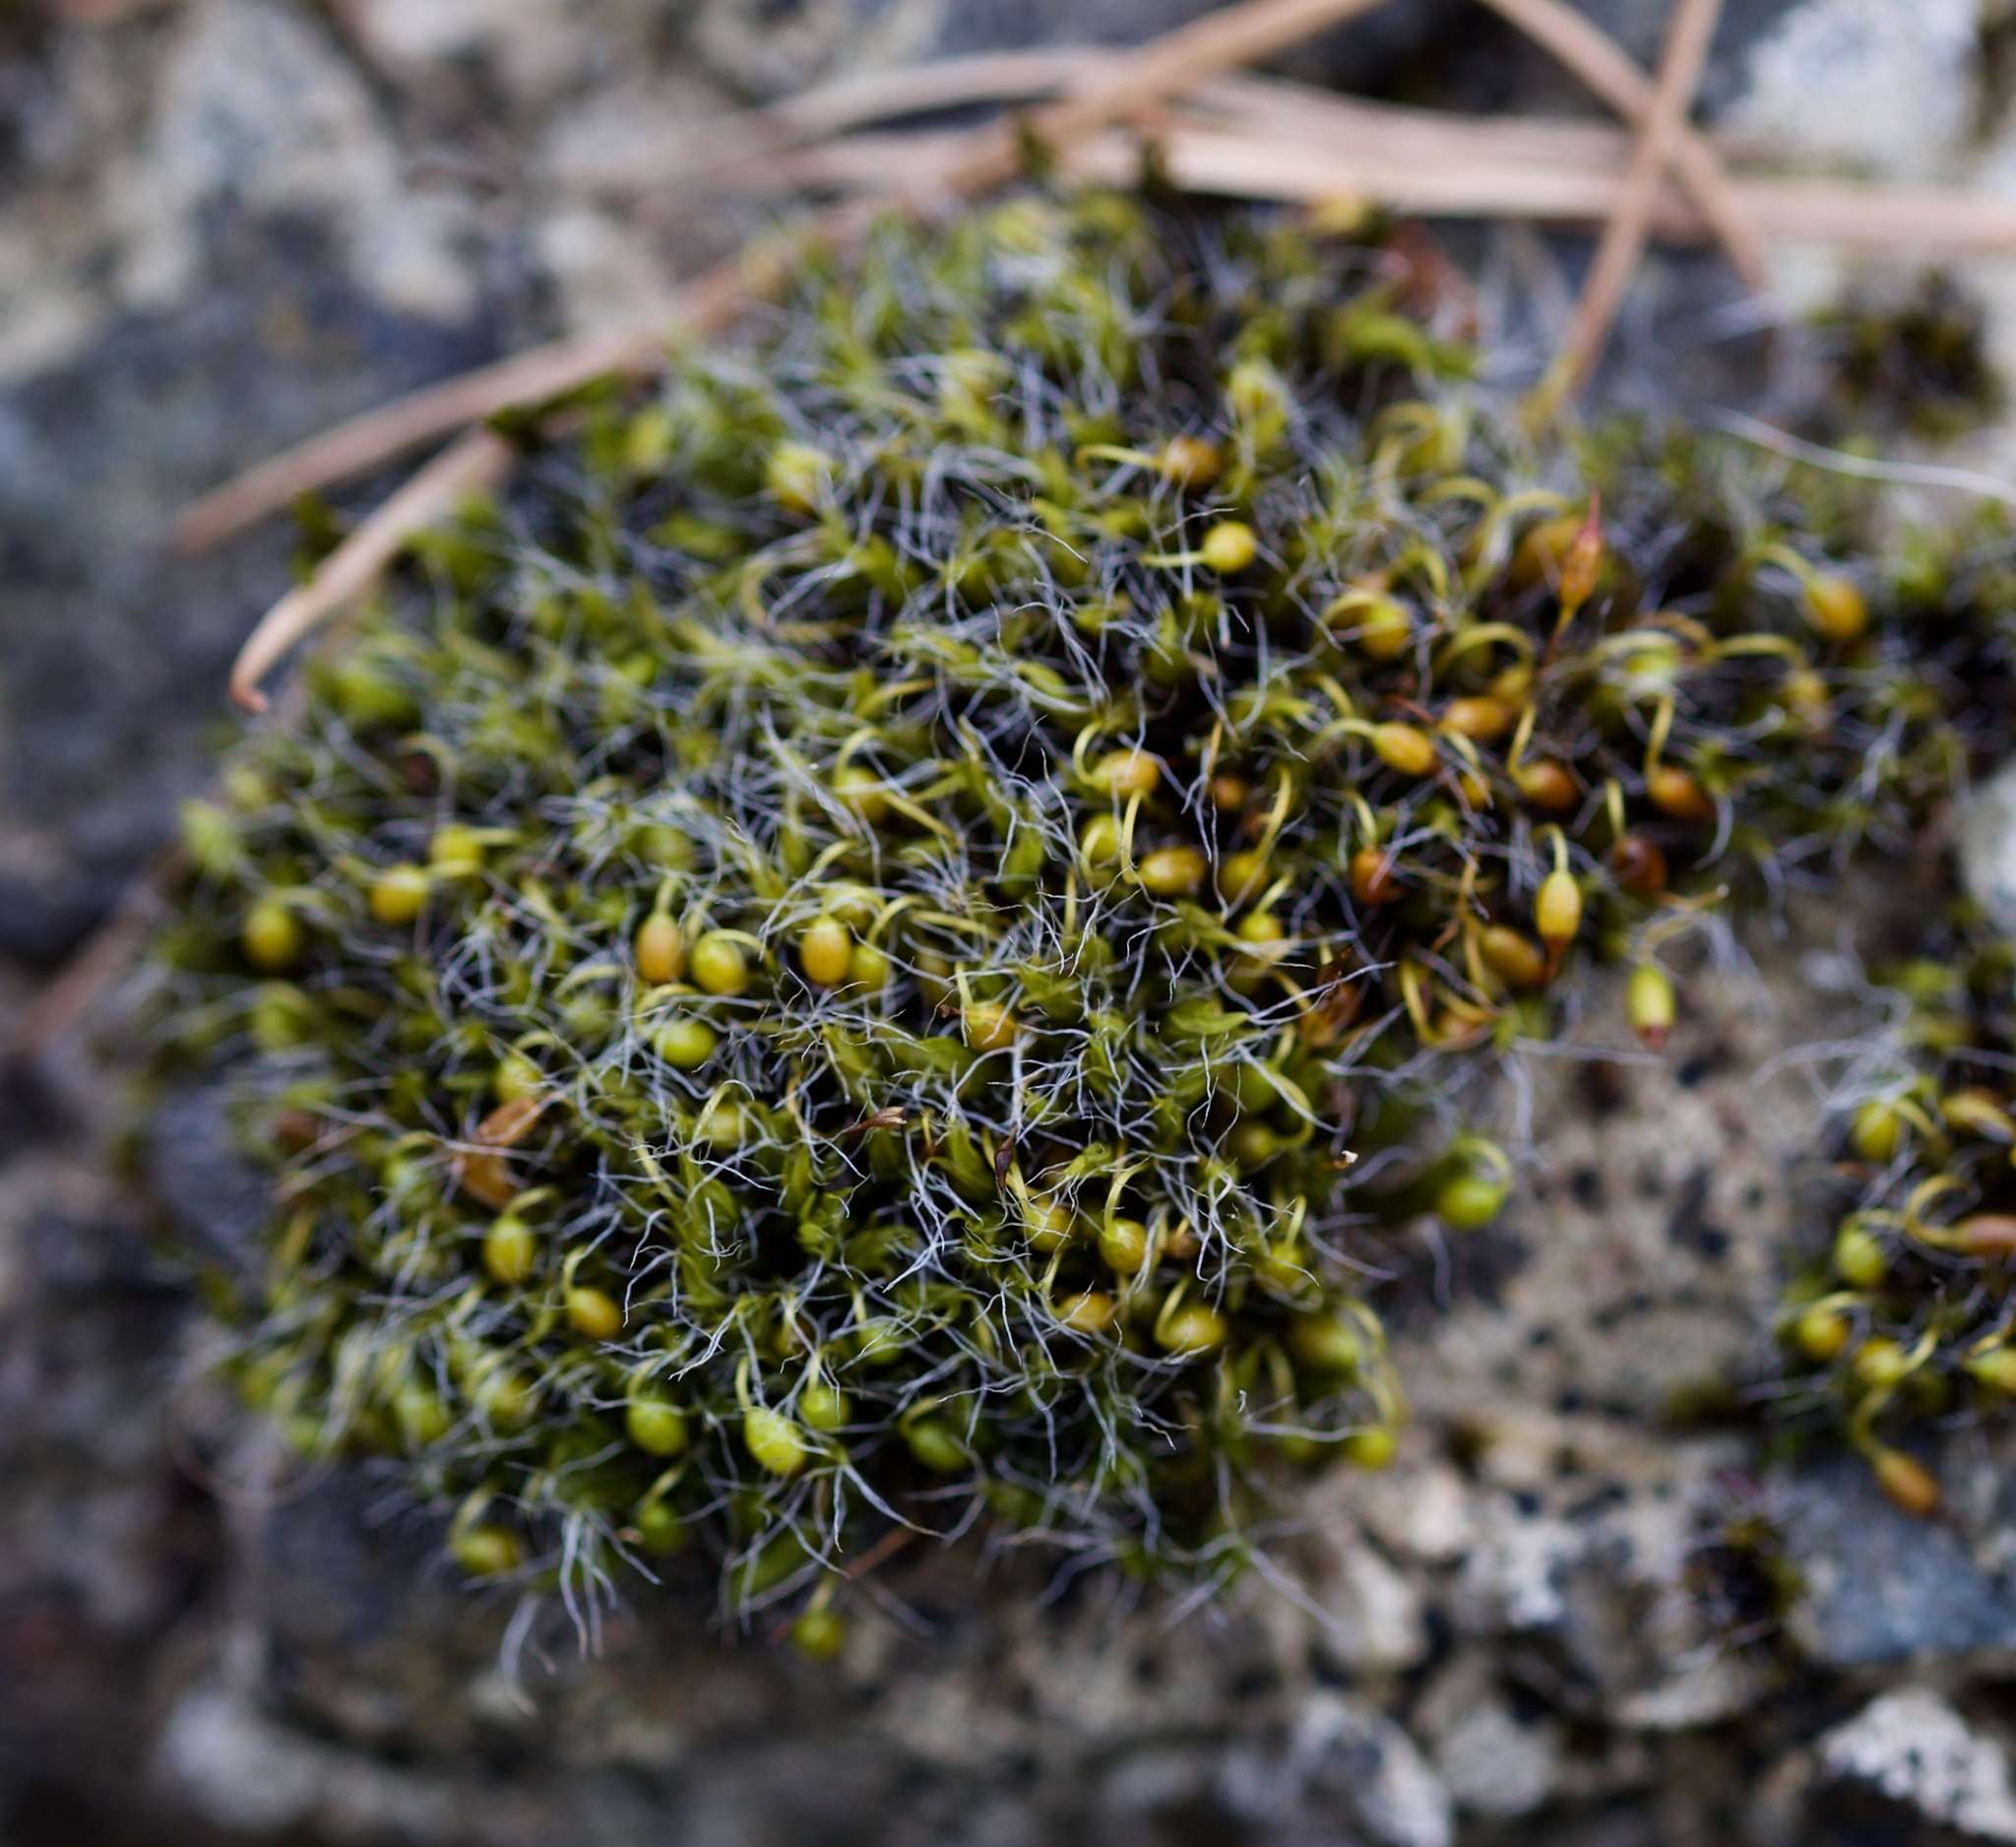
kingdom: Plantae
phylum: Bryophyta
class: Bryopsida
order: Grimmiales
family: Grimmiaceae
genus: Grimmia
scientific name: Grimmia pulvinata
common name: Grey-cushioned grimmia
